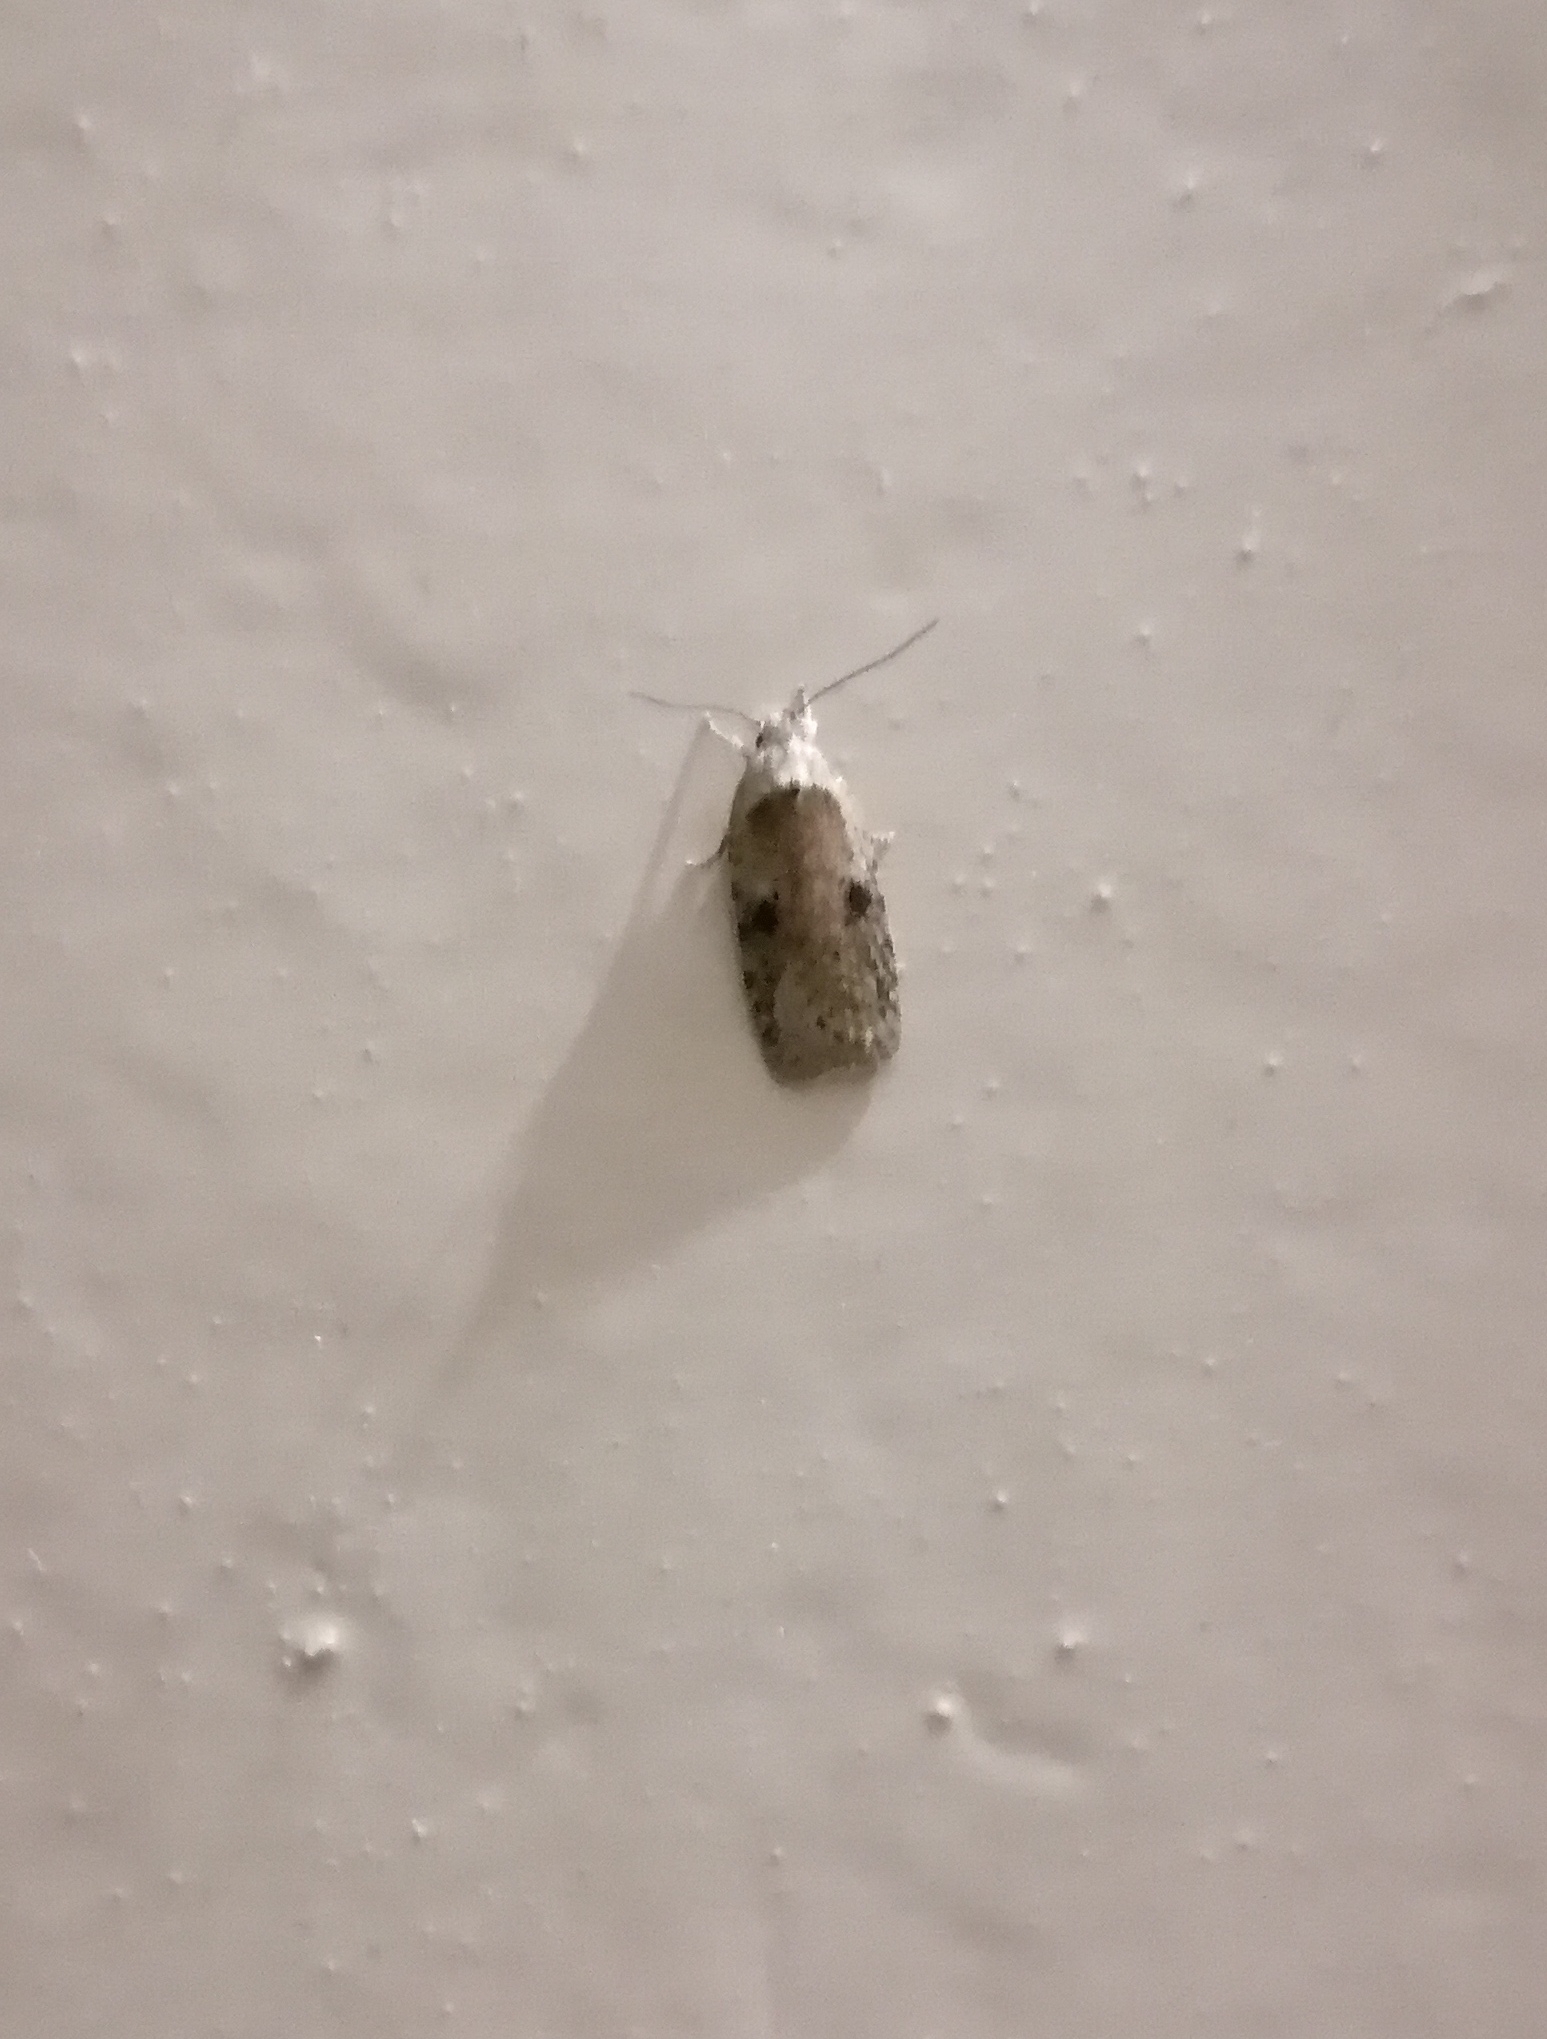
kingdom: Animalia
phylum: Arthropoda
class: Insecta
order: Lepidoptera
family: Depressariidae
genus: Agonopterix
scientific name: Agonopterix propinquella
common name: Black-spot flat-body
